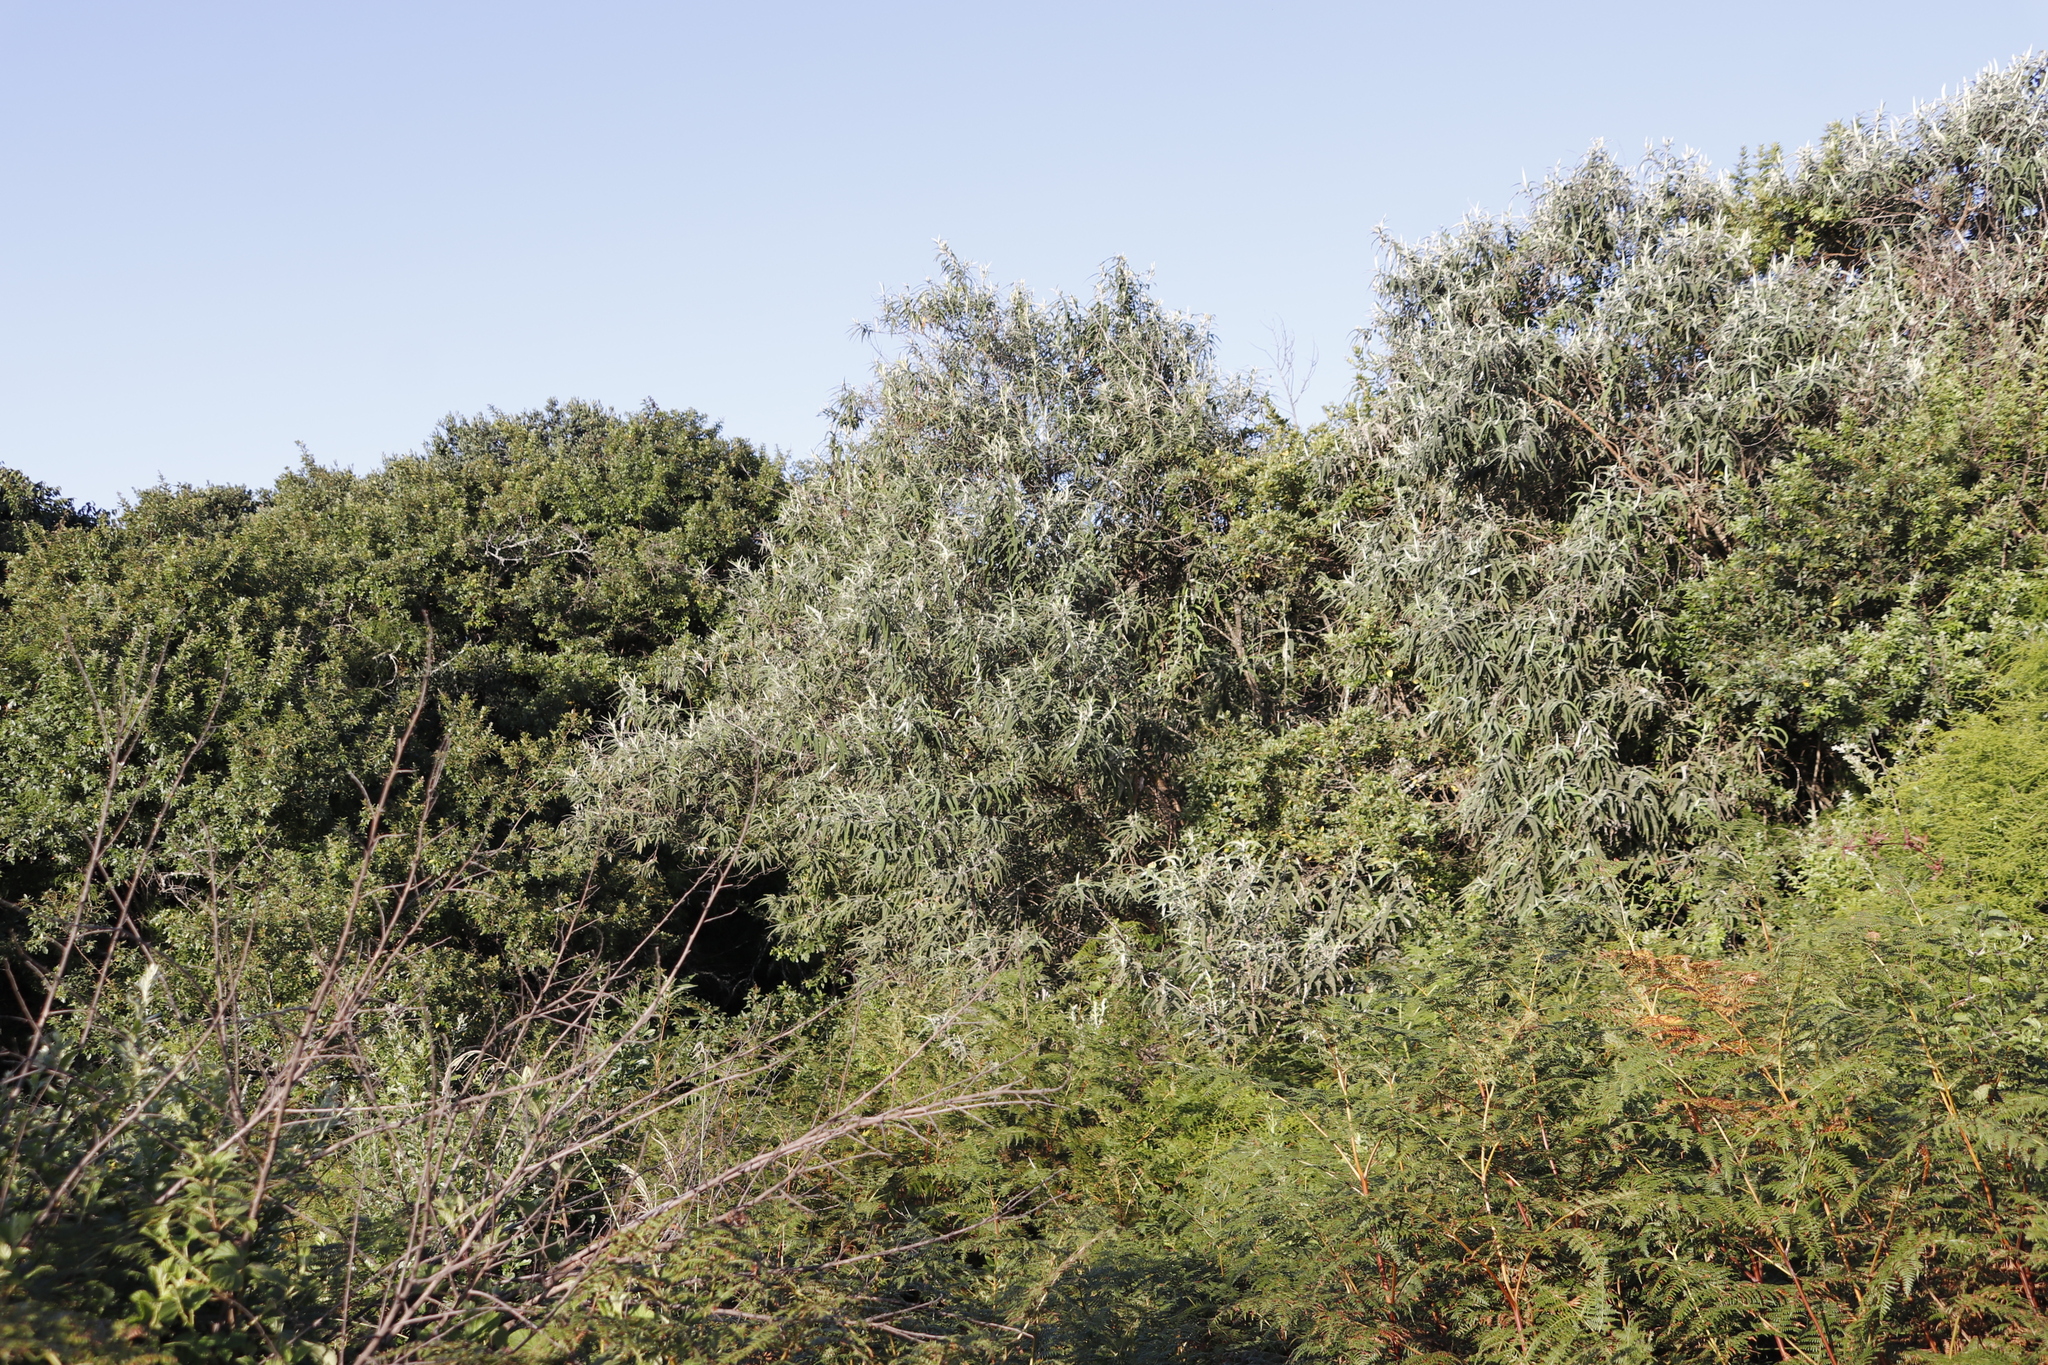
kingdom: Plantae
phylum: Tracheophyta
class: Magnoliopsida
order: Lamiales
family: Scrophulariaceae
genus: Buddleja
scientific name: Buddleja salviifolia
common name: Sagewood
